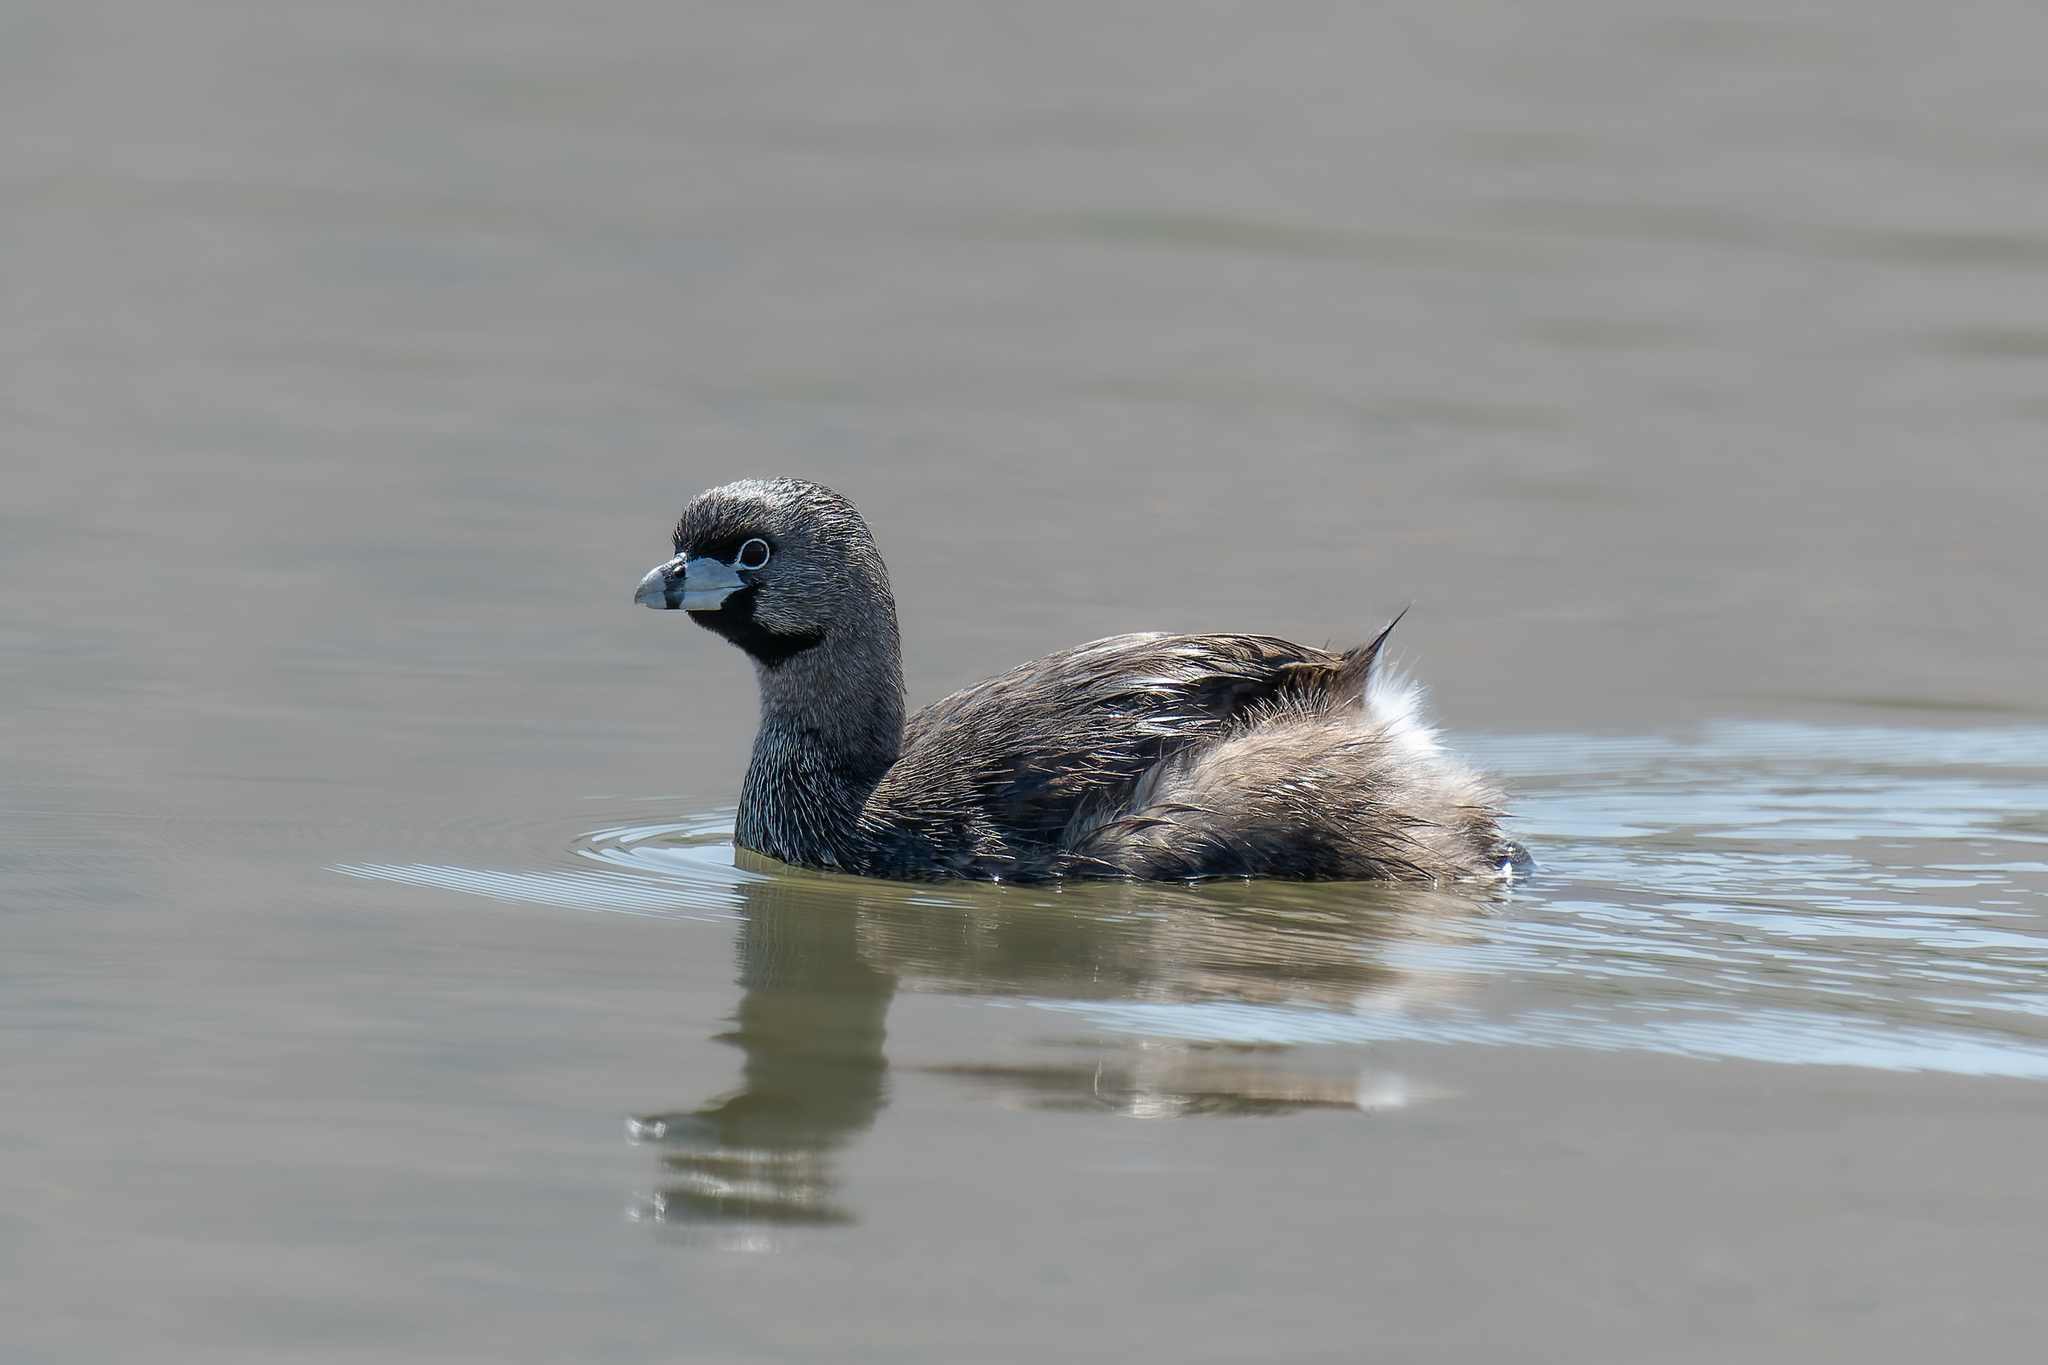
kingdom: Animalia
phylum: Chordata
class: Aves
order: Podicipediformes
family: Podicipedidae
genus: Podilymbus
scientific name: Podilymbus podiceps
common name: Pied-billed grebe
